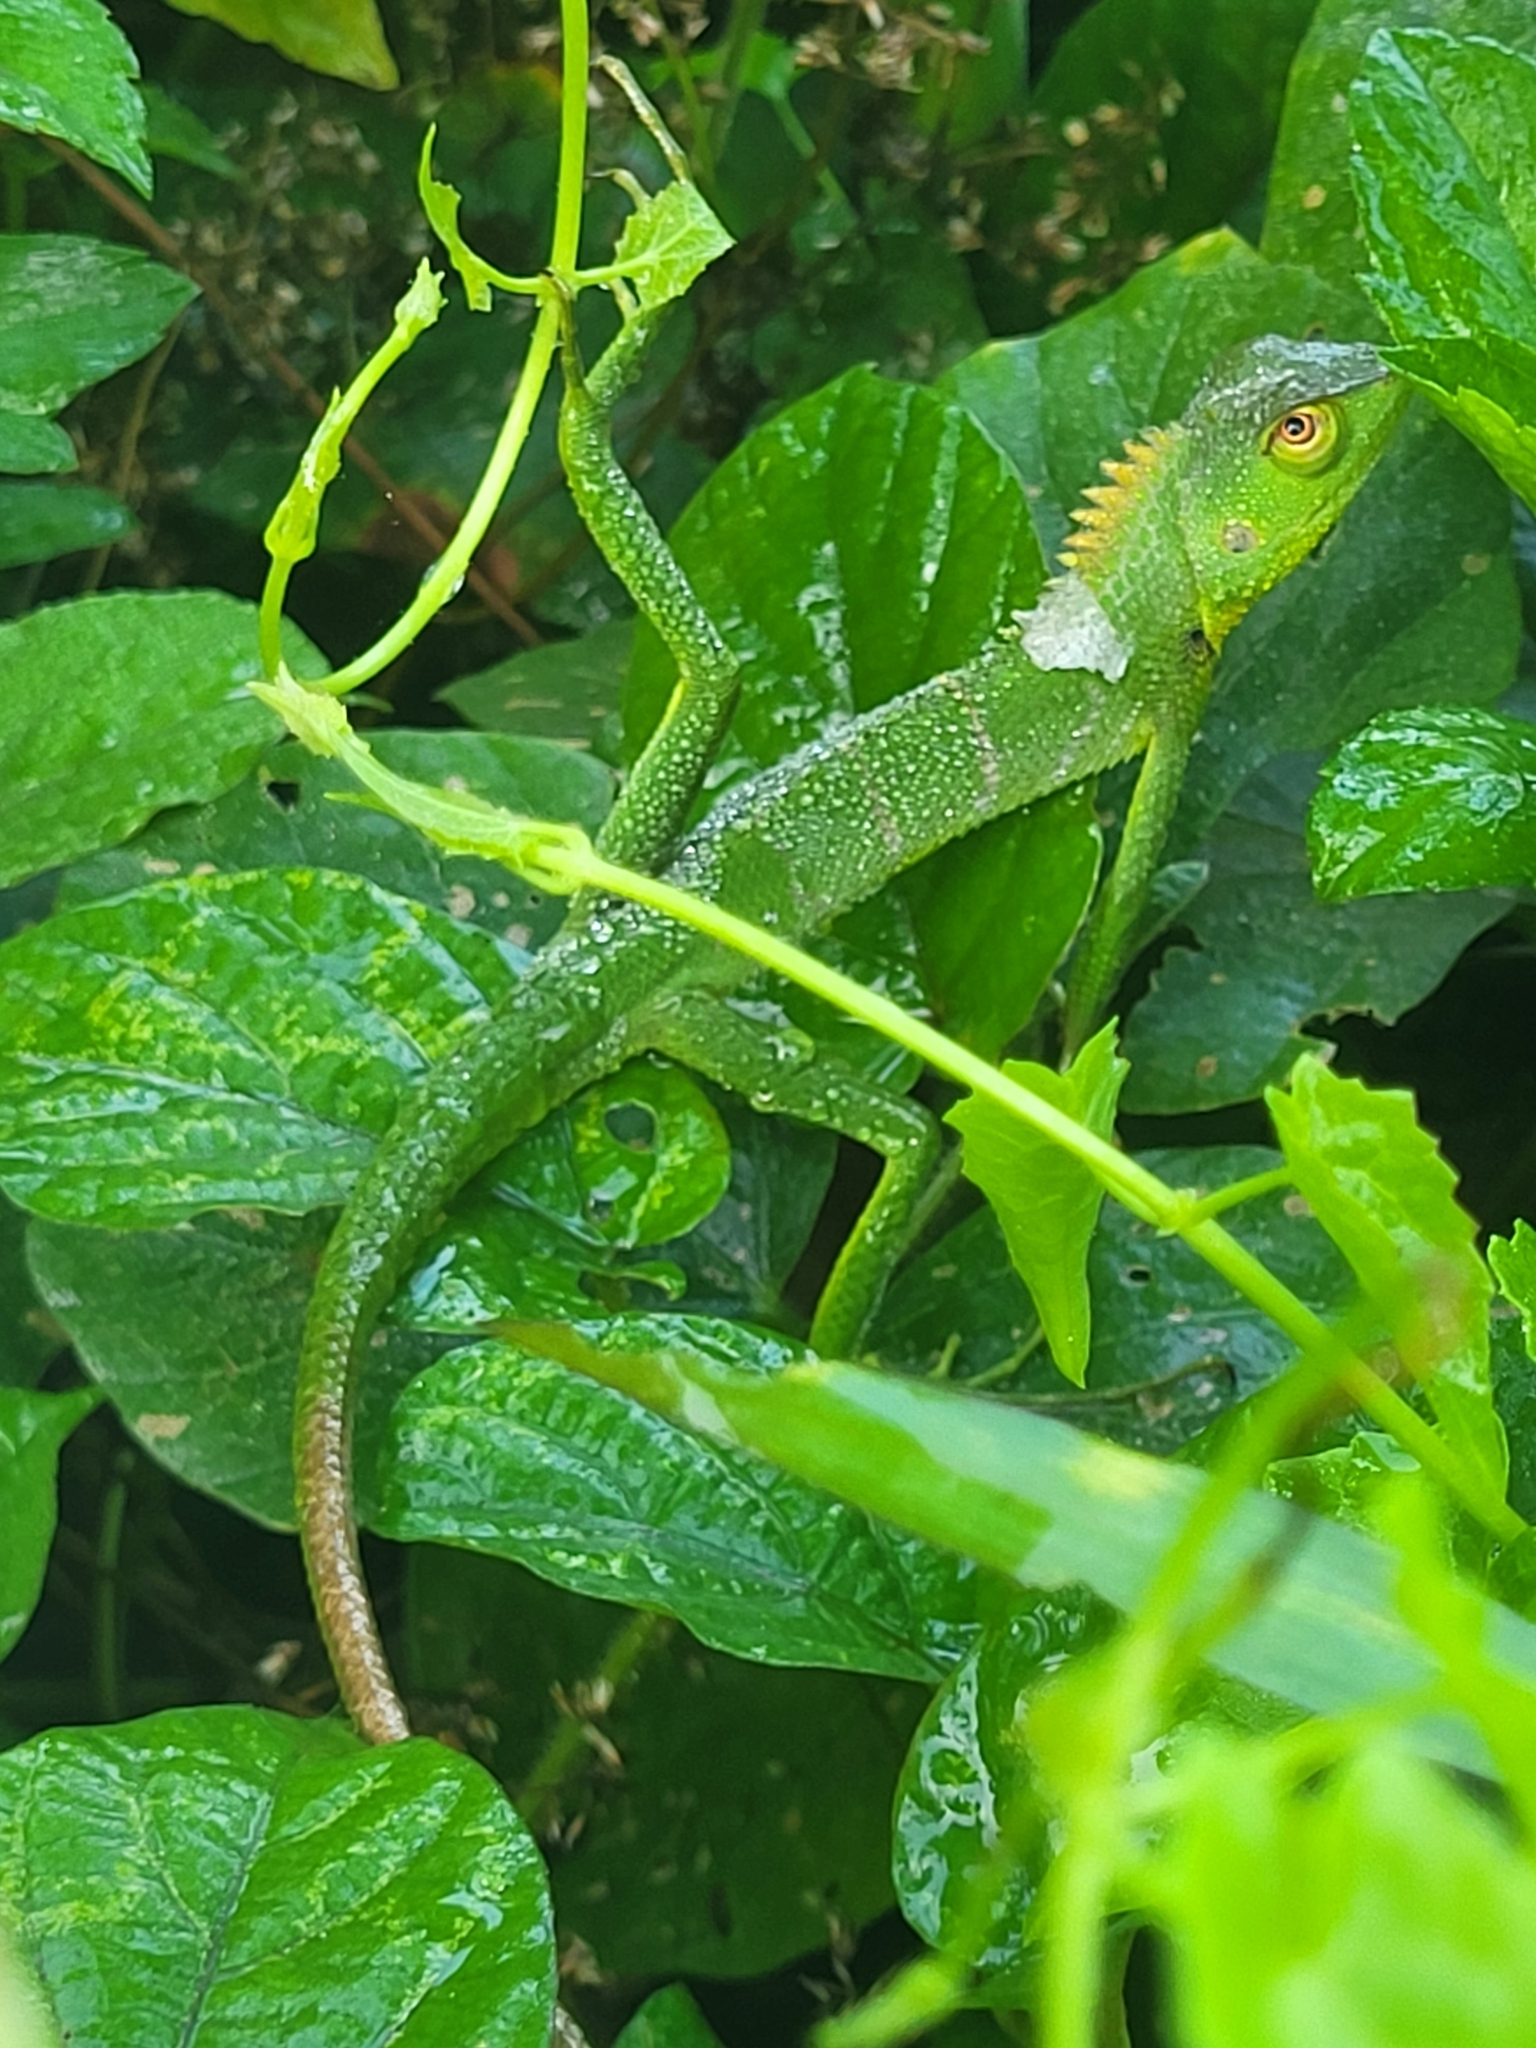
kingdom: Animalia
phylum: Chordata
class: Squamata
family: Agamidae
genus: Calotes
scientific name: Calotes calotes
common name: Common green forest lizard
